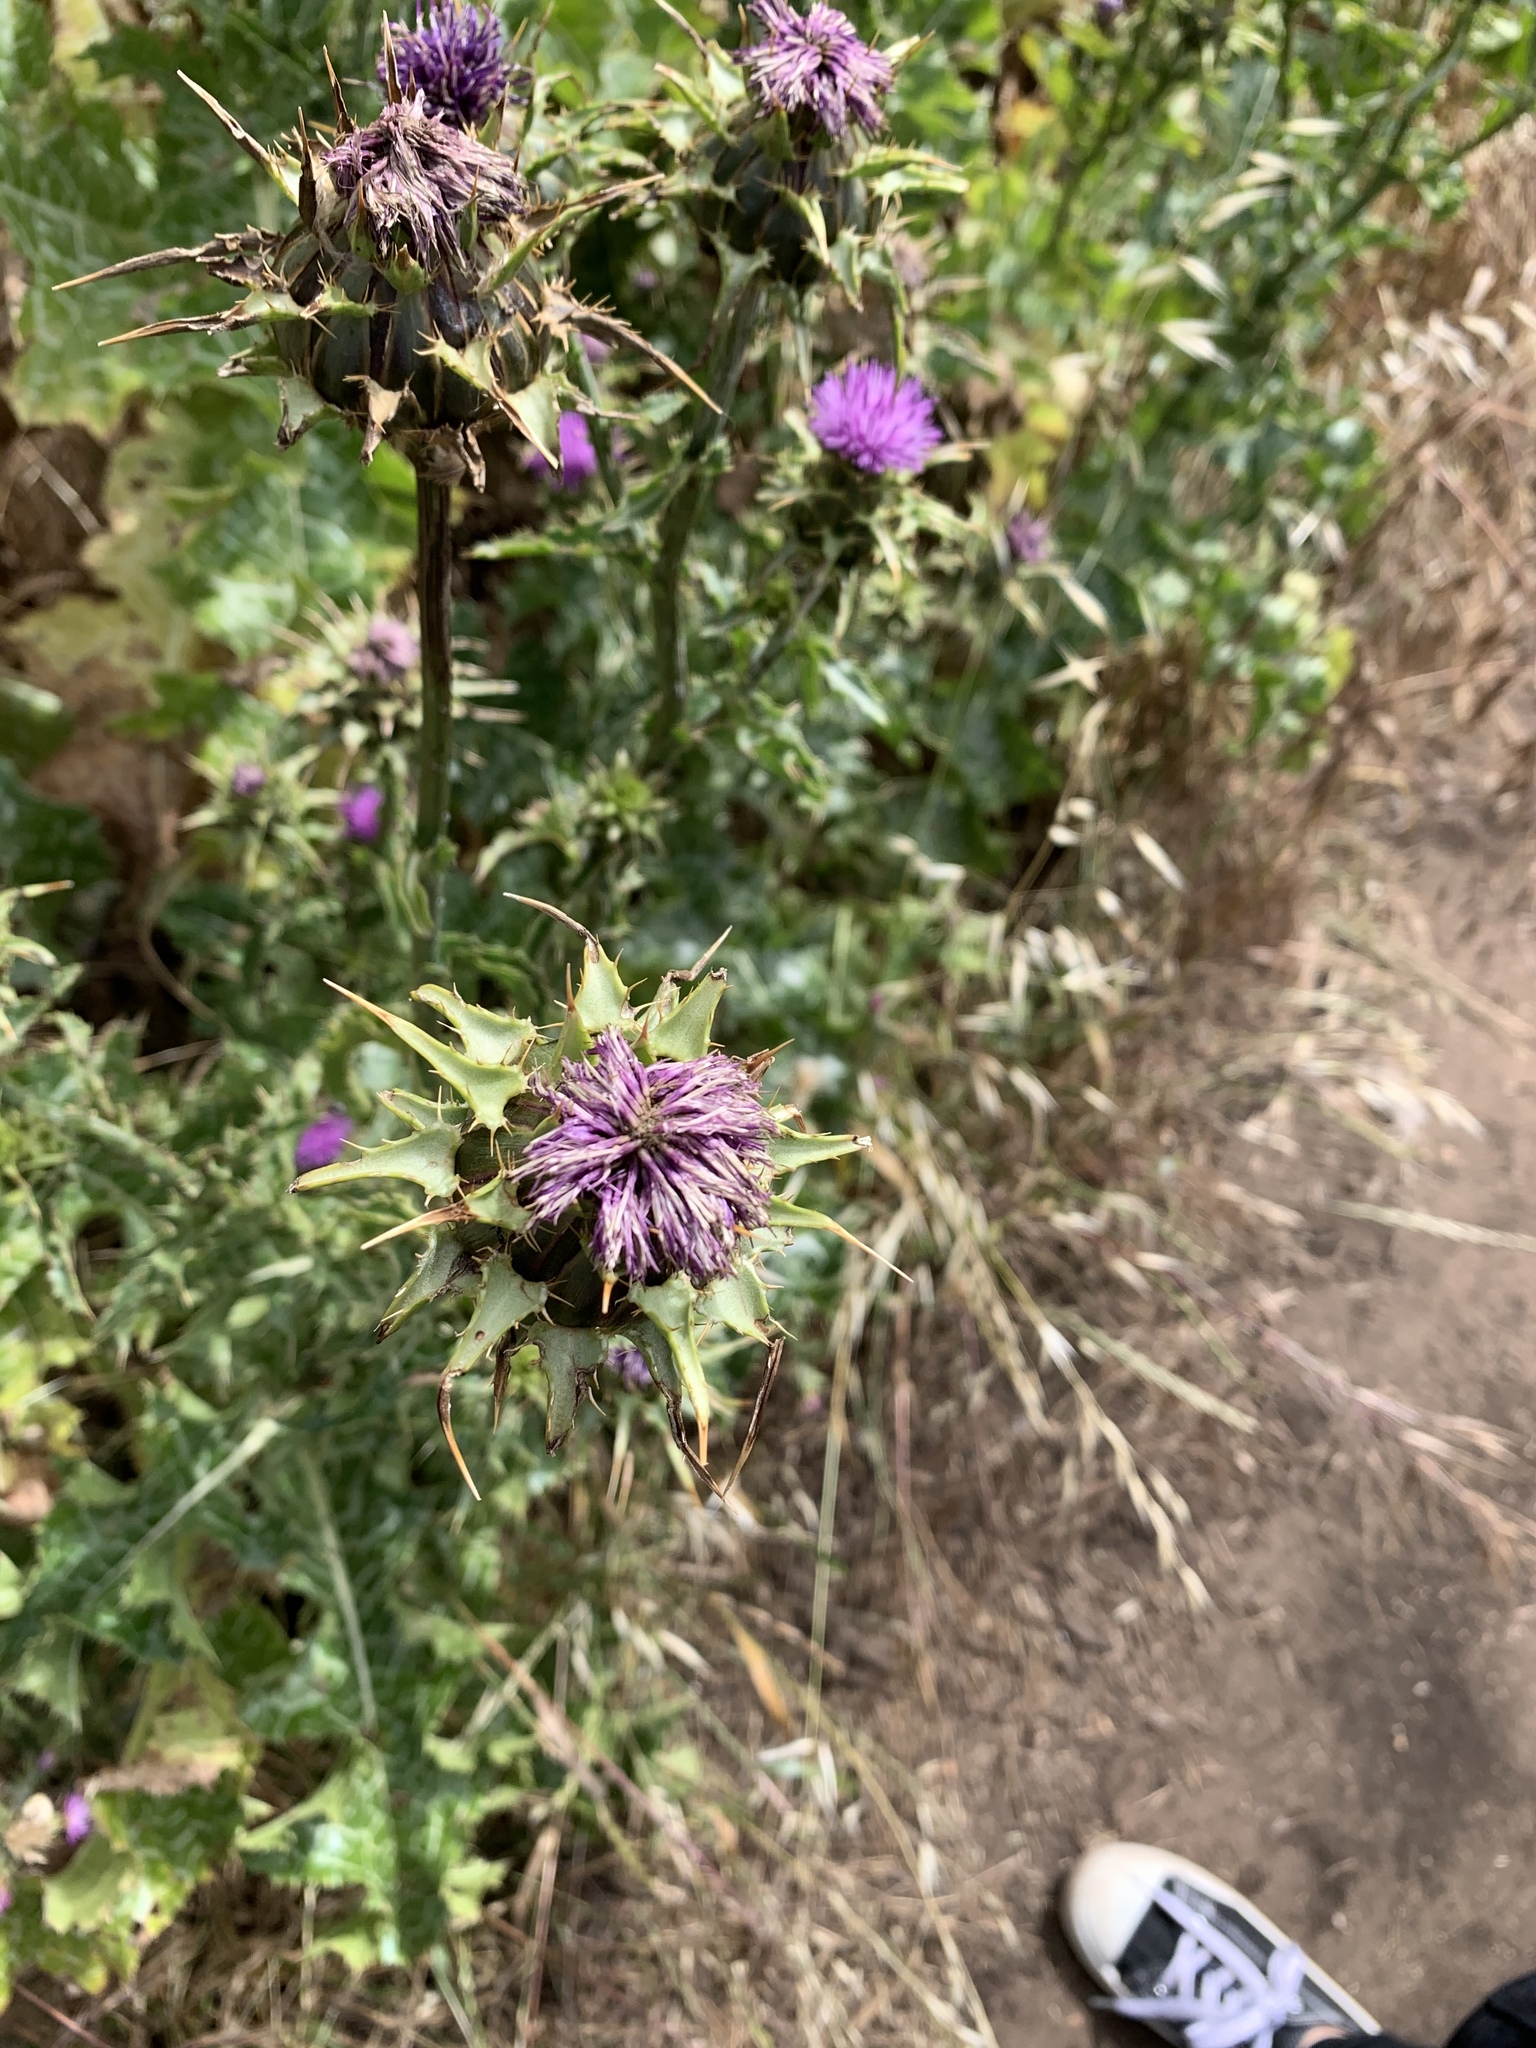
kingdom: Plantae
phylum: Tracheophyta
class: Magnoliopsida
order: Asterales
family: Asteraceae
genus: Silybum
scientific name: Silybum marianum
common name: Milk thistle
